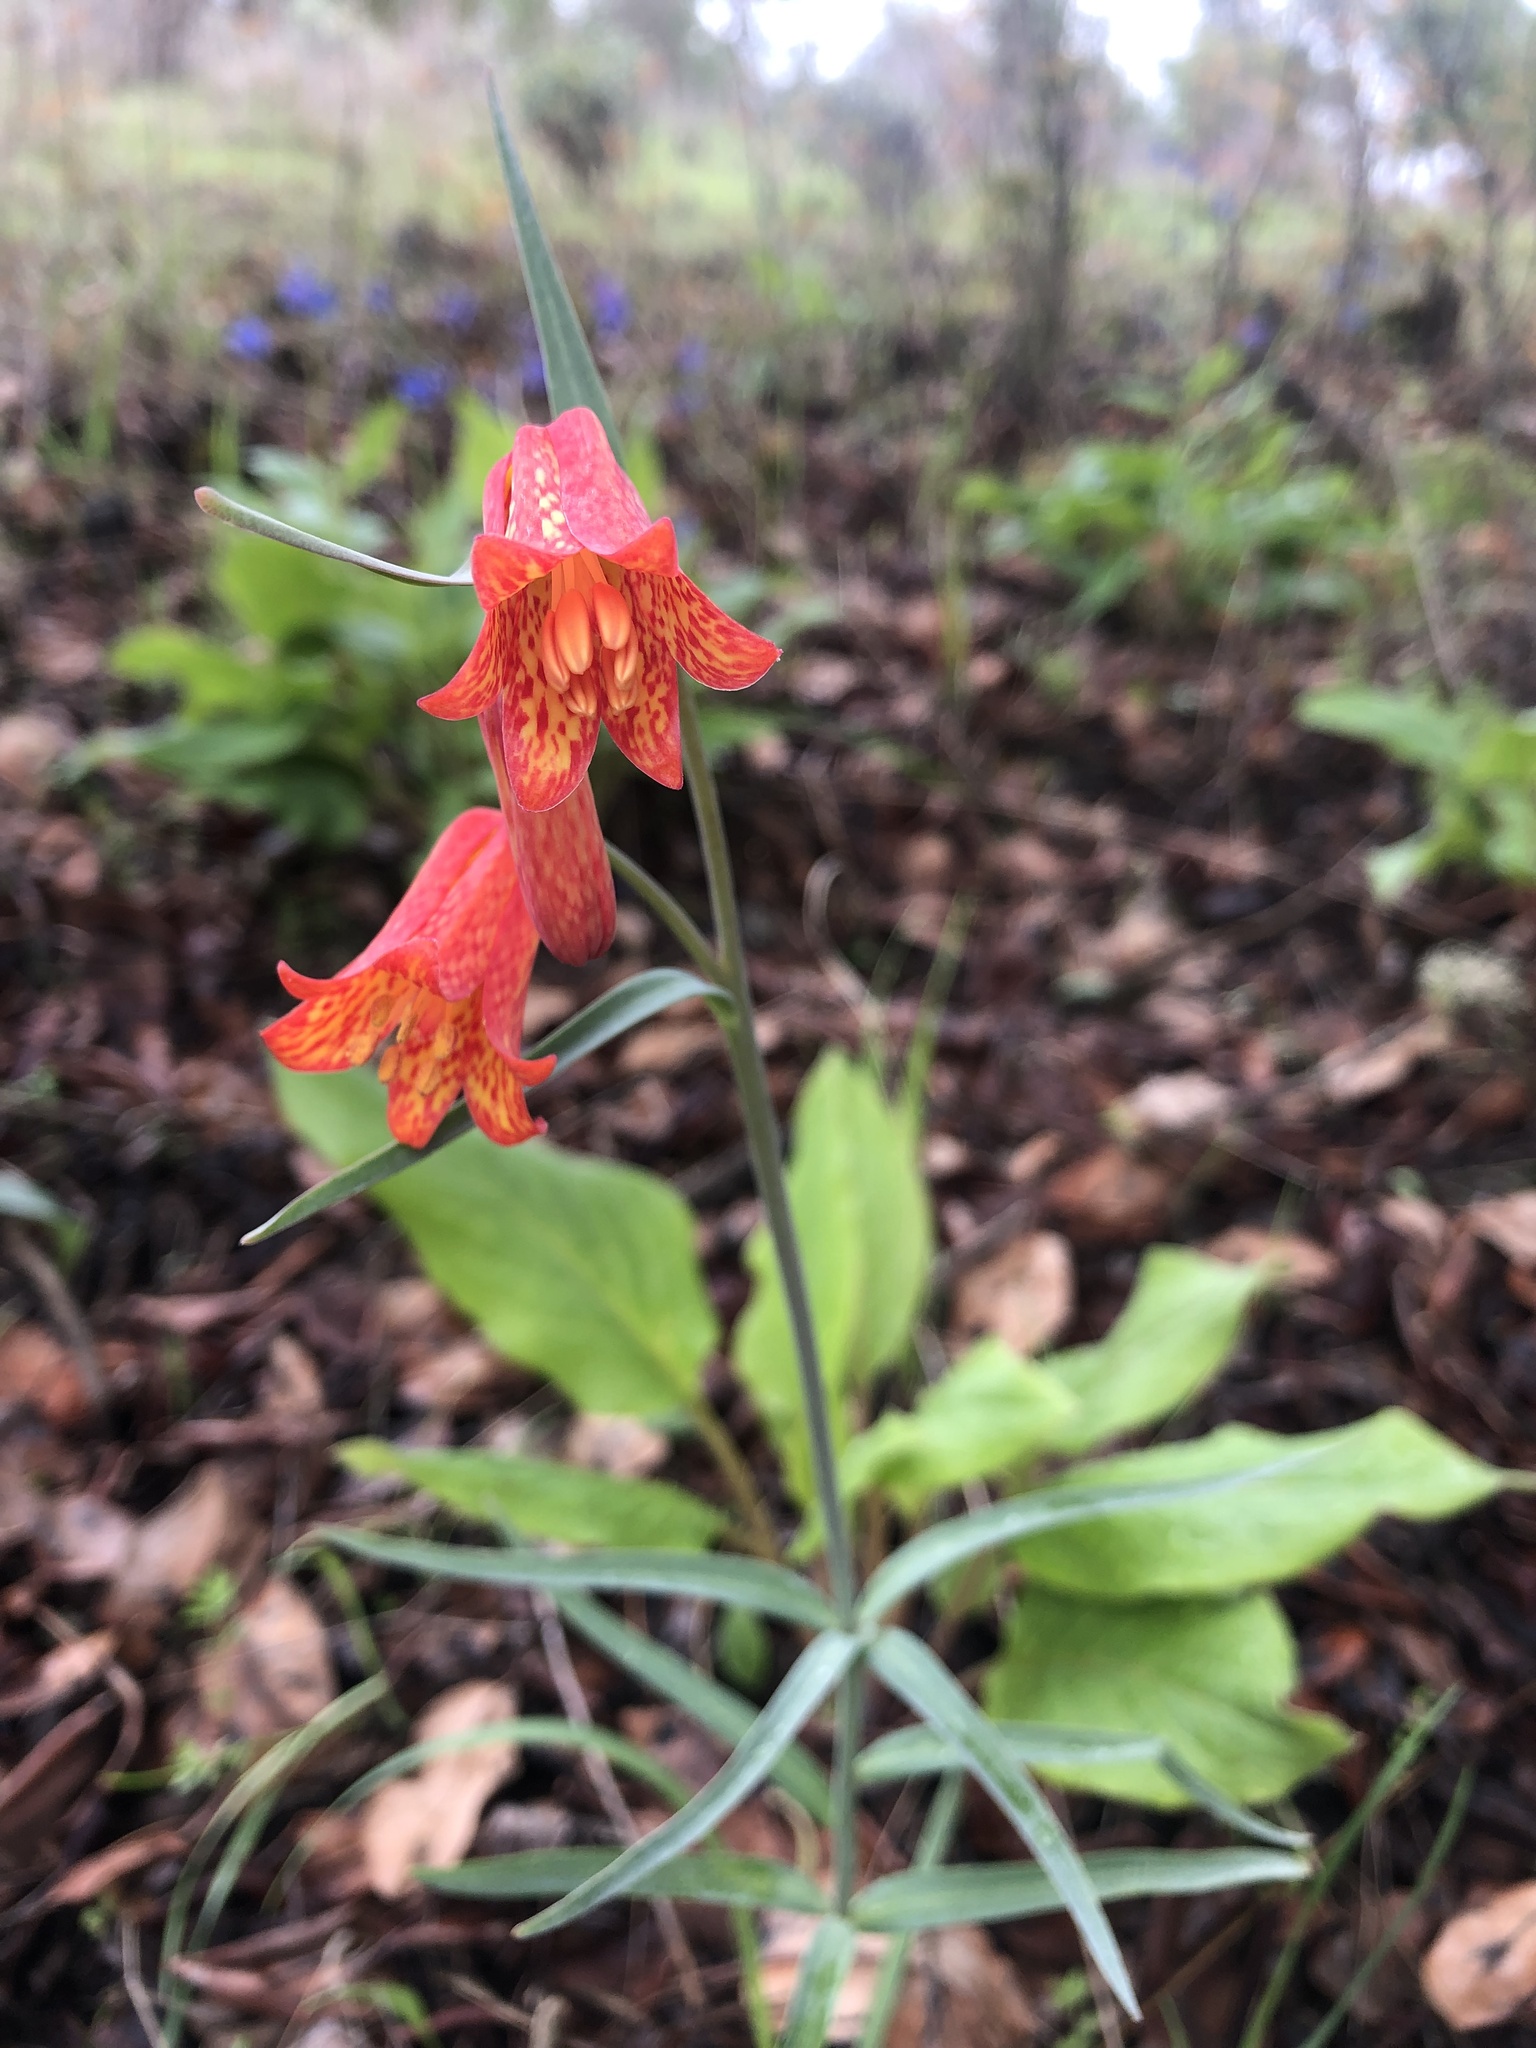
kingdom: Plantae
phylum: Tracheophyta
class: Liliopsida
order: Liliales
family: Liliaceae
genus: Fritillaria
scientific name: Fritillaria recurva
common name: Scarlet fritillary
